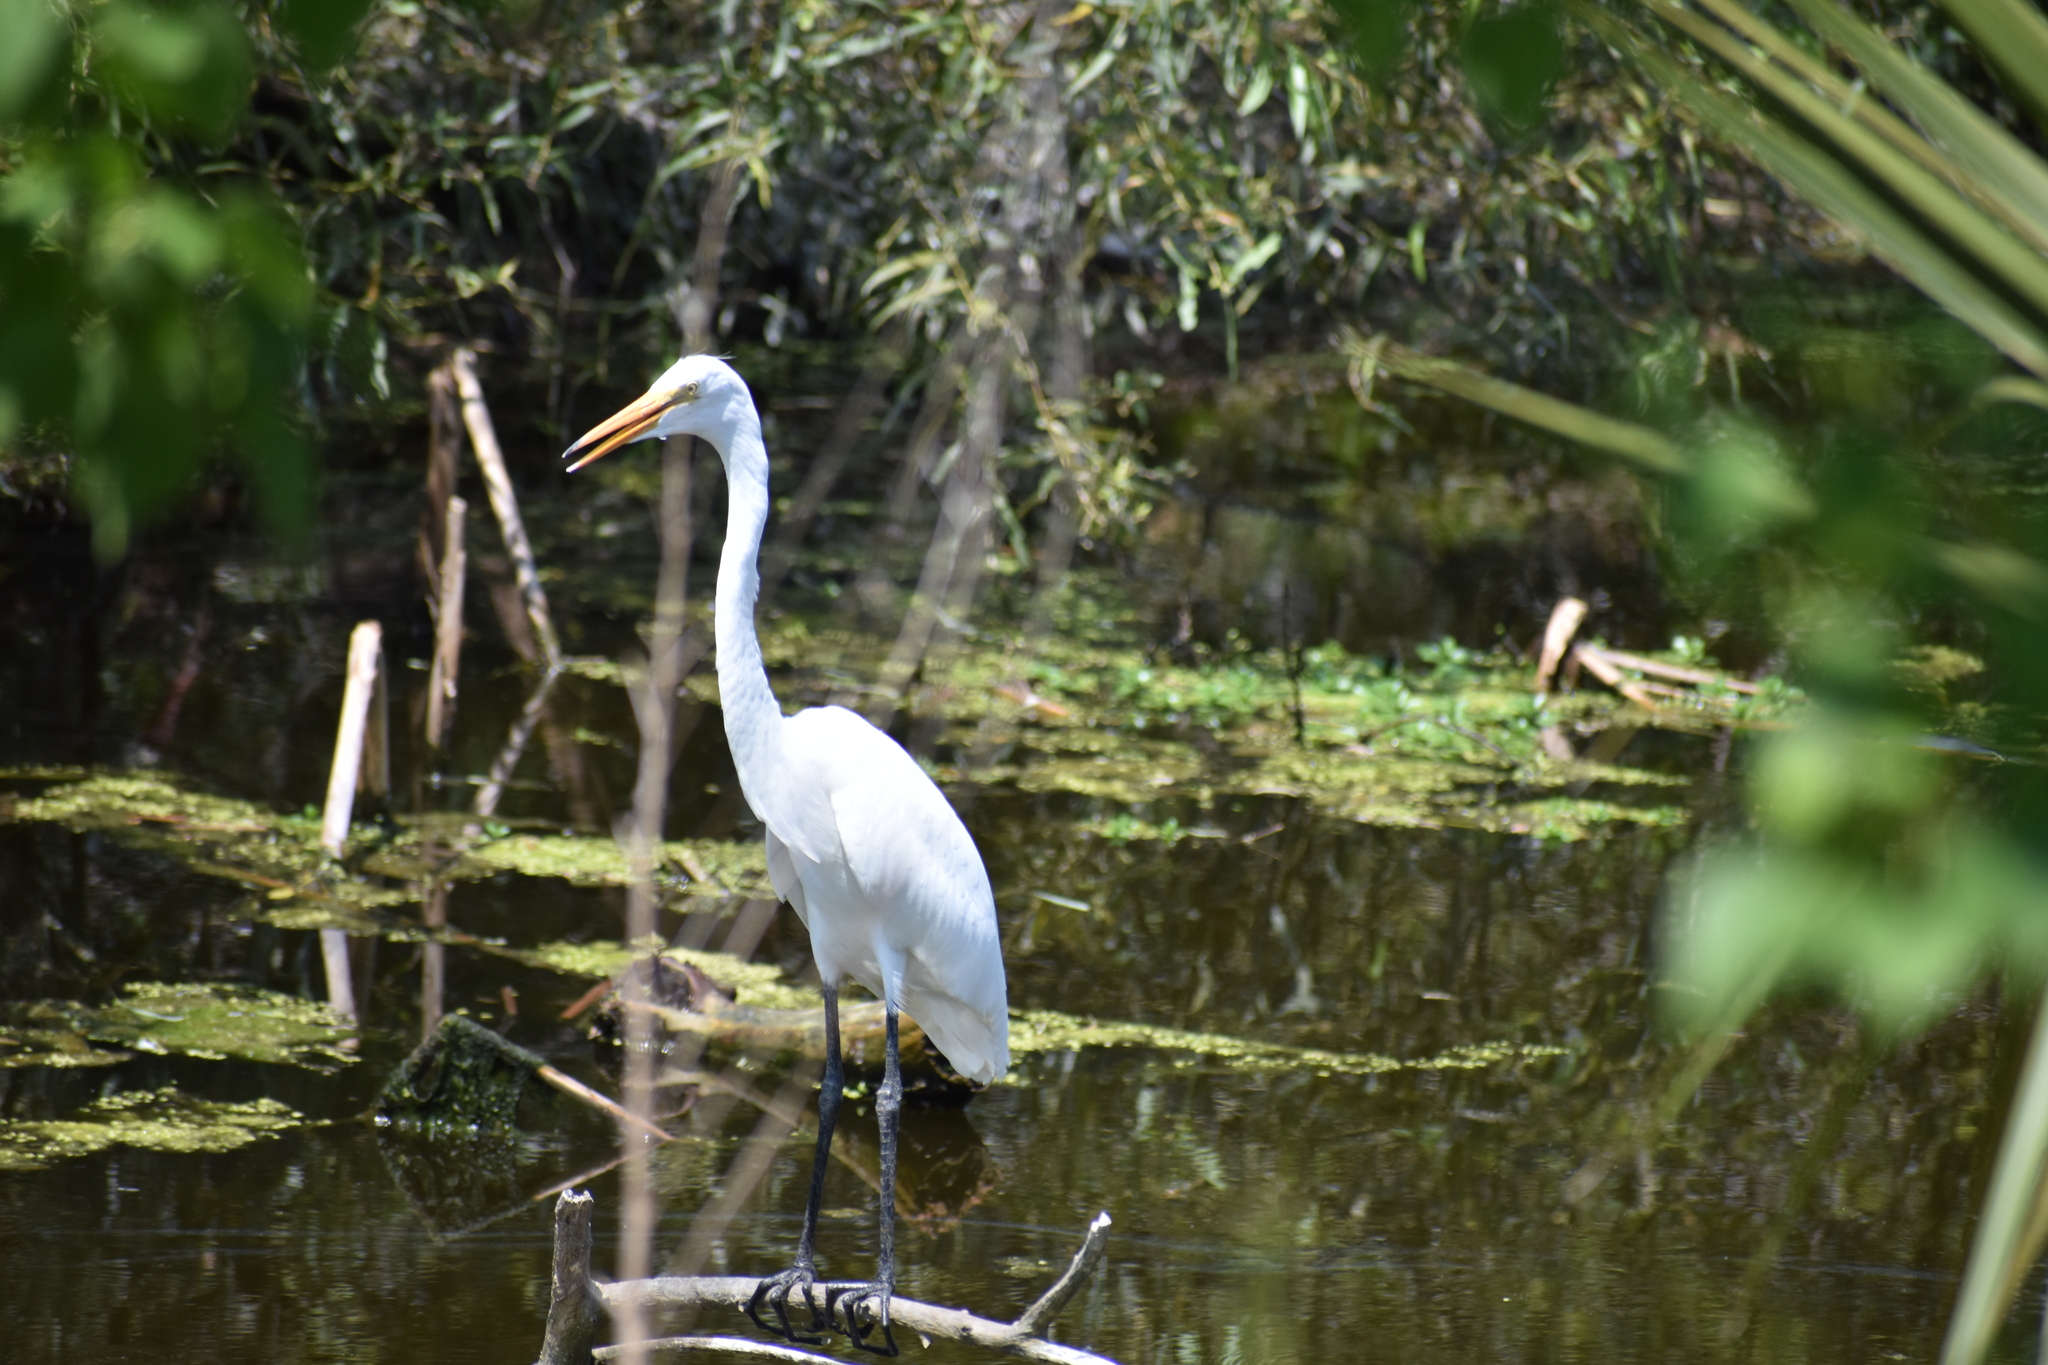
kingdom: Animalia
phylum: Chordata
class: Aves
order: Pelecaniformes
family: Ardeidae
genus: Ardea
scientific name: Ardea alba
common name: Great egret
